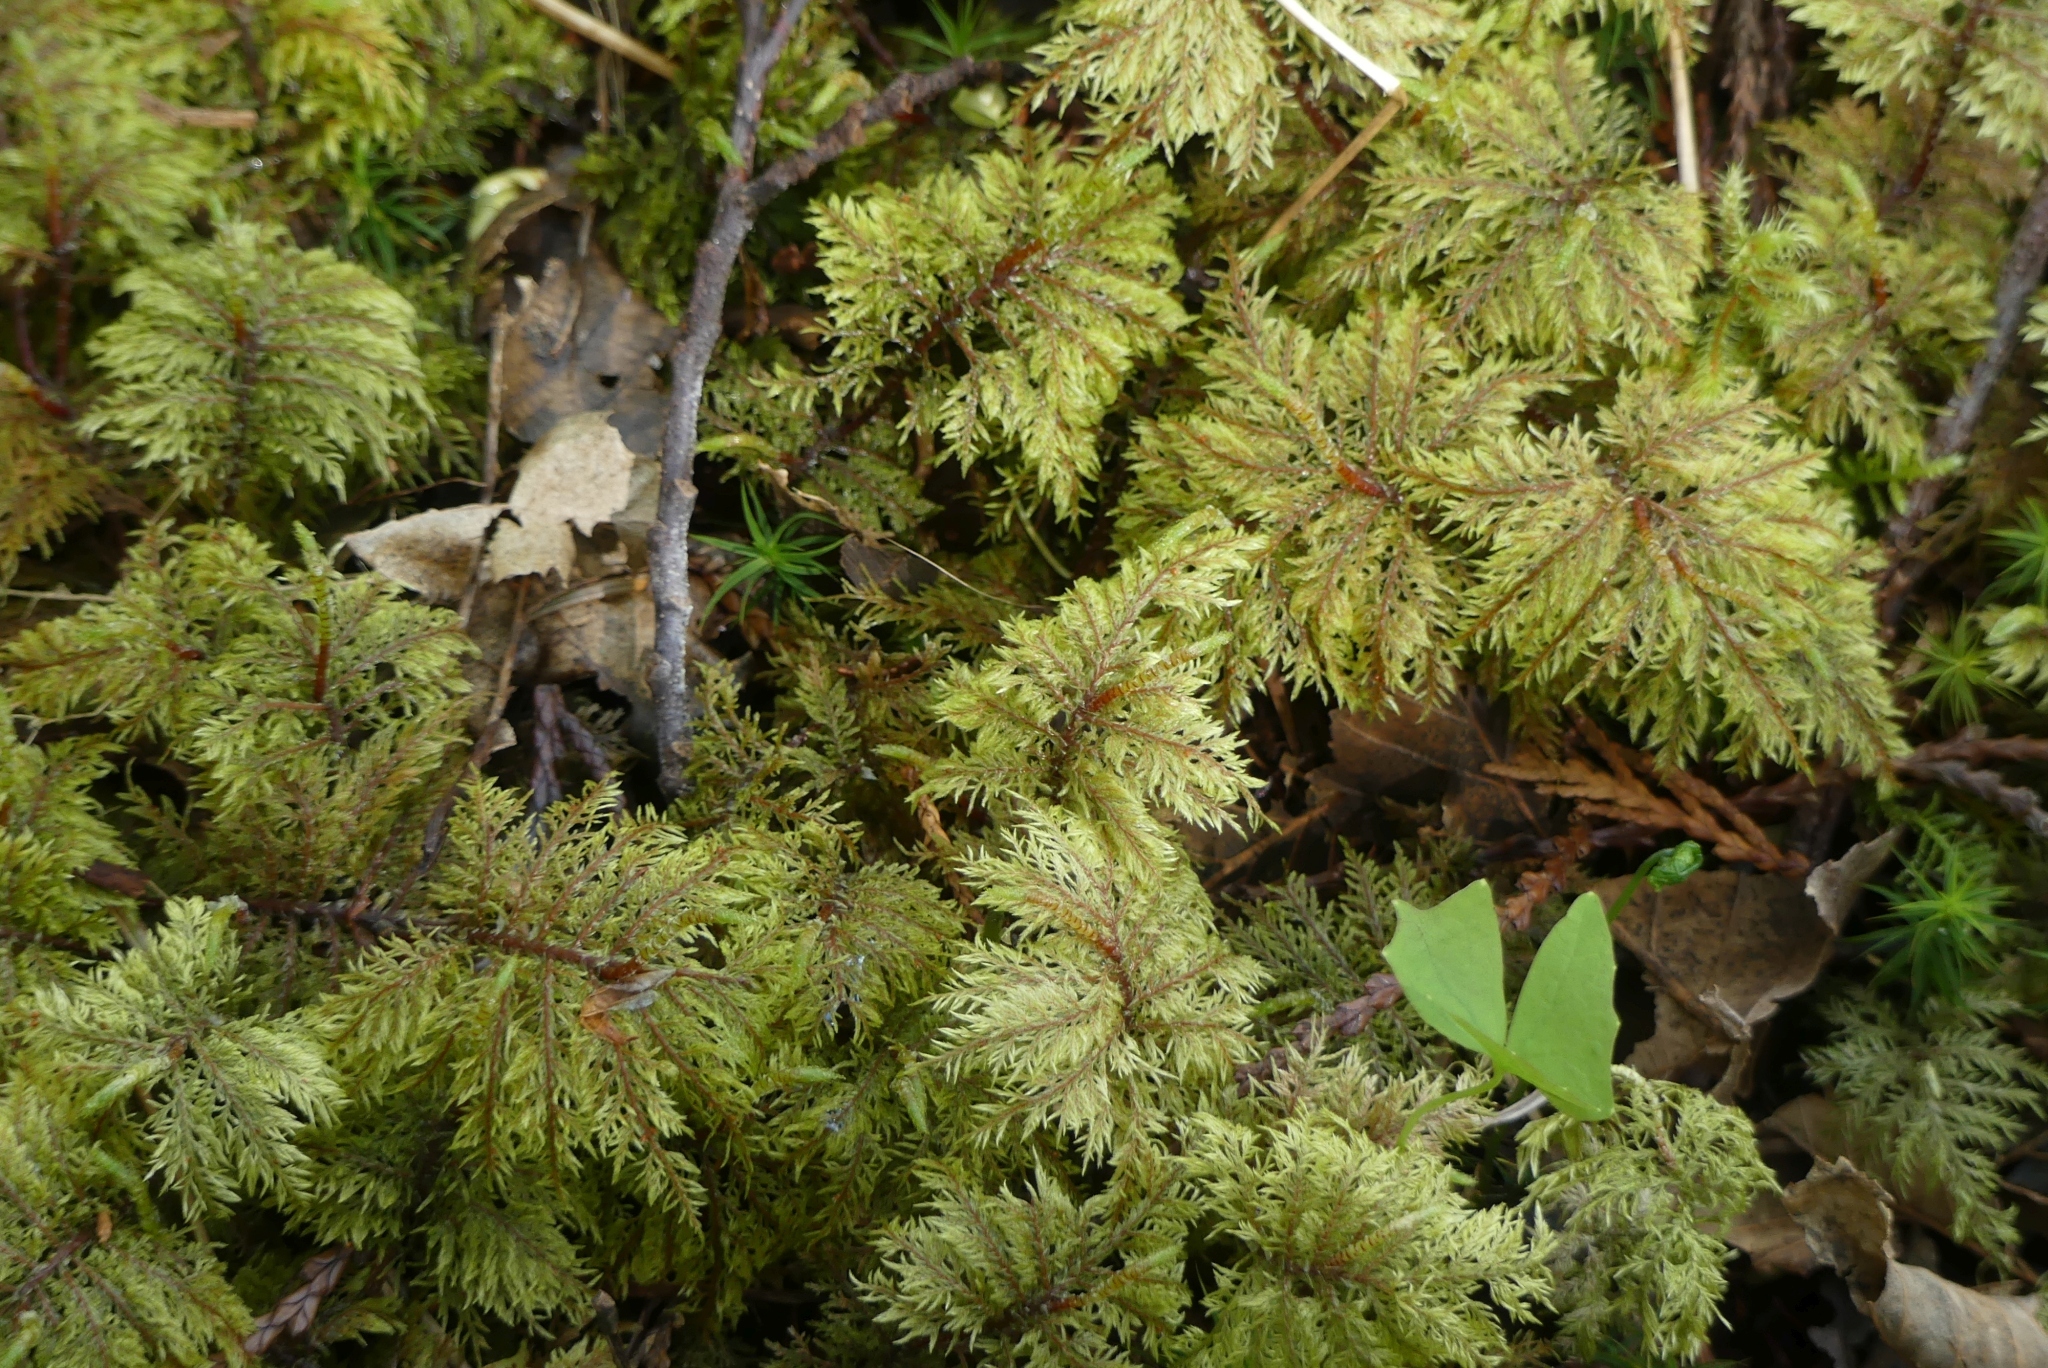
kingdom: Plantae
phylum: Bryophyta
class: Bryopsida
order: Hypnales
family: Hylocomiaceae
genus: Hylocomium
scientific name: Hylocomium splendens
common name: Stairstep moss
